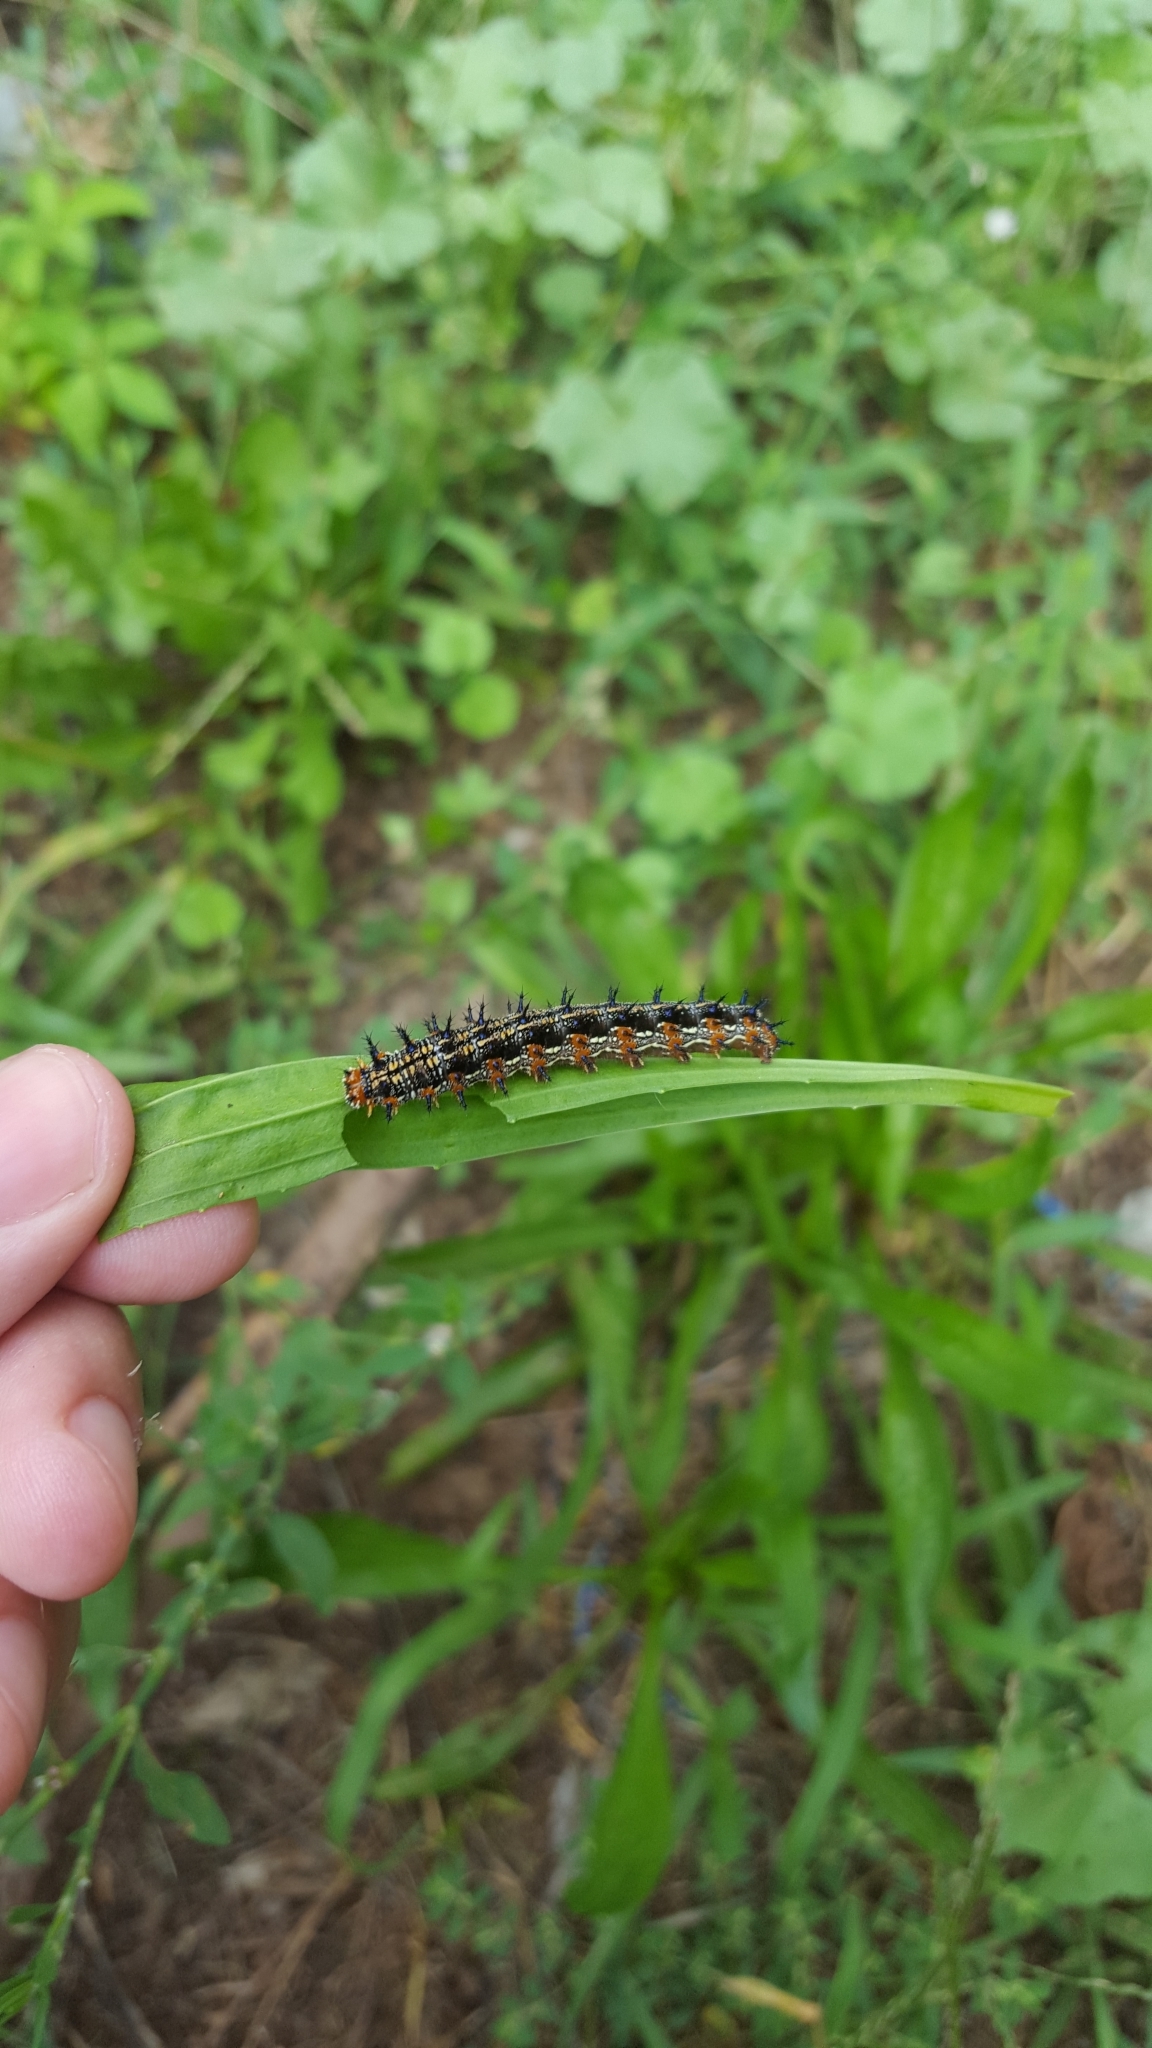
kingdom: Animalia
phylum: Arthropoda
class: Insecta
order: Lepidoptera
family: Nymphalidae
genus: Junonia
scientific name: Junonia coenia
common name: Common buckeye
